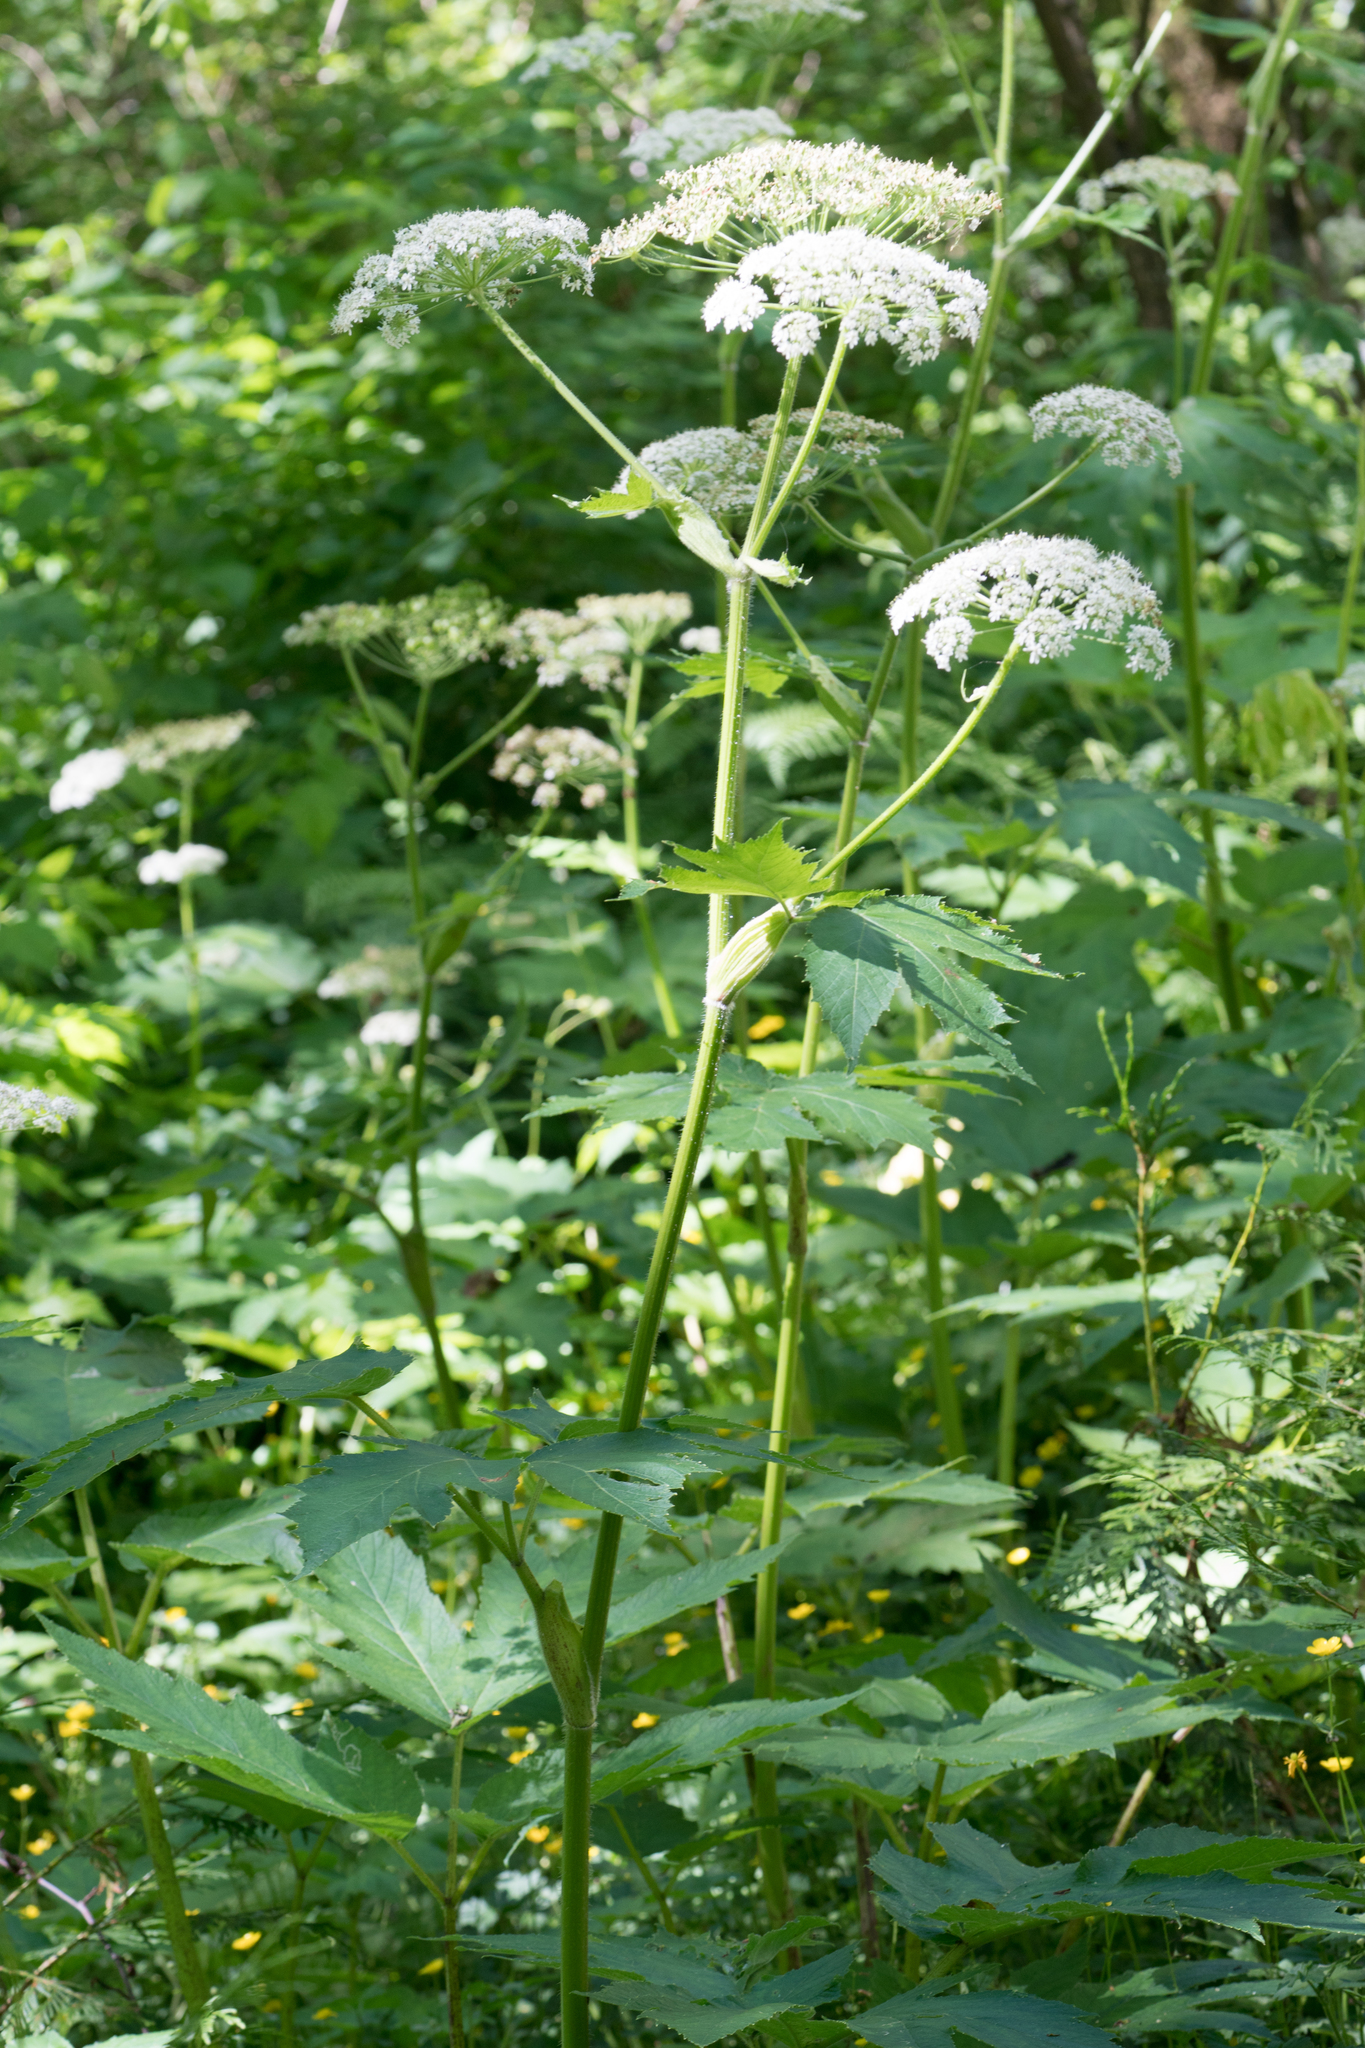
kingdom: Plantae
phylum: Tracheophyta
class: Magnoliopsida
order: Apiales
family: Apiaceae
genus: Heracleum
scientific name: Heracleum maximum
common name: American cow parsnip
